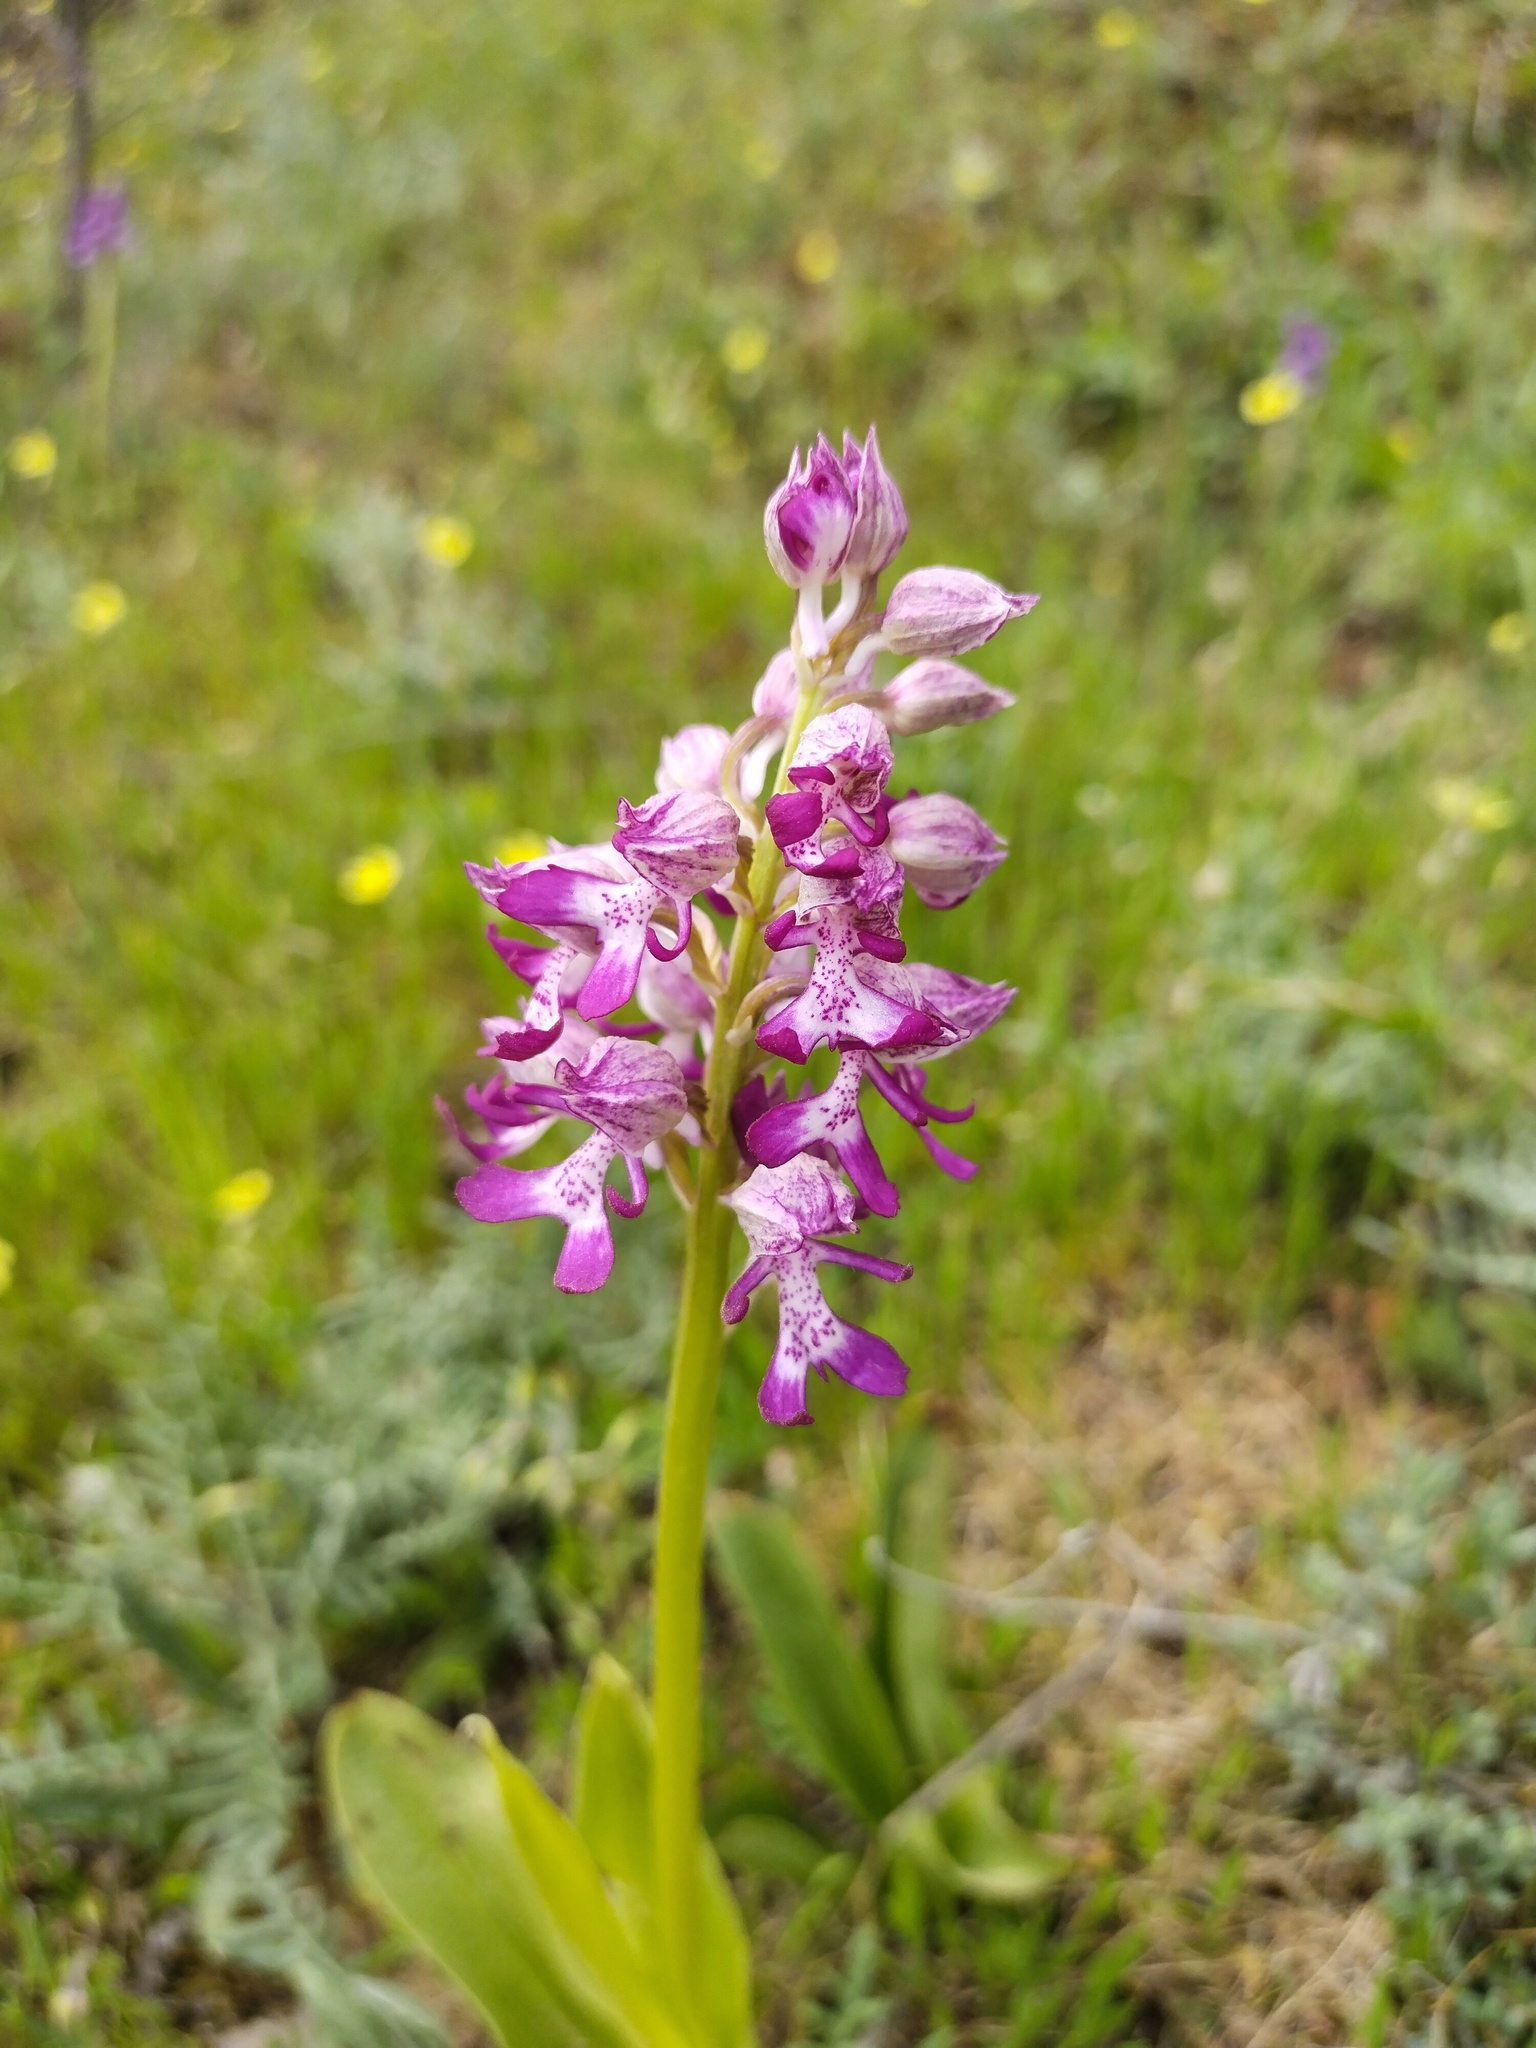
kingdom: Plantae
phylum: Tracheophyta
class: Liliopsida
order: Asparagales
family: Orchidaceae
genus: Orchis
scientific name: Orchis militaris
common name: Military orchid
